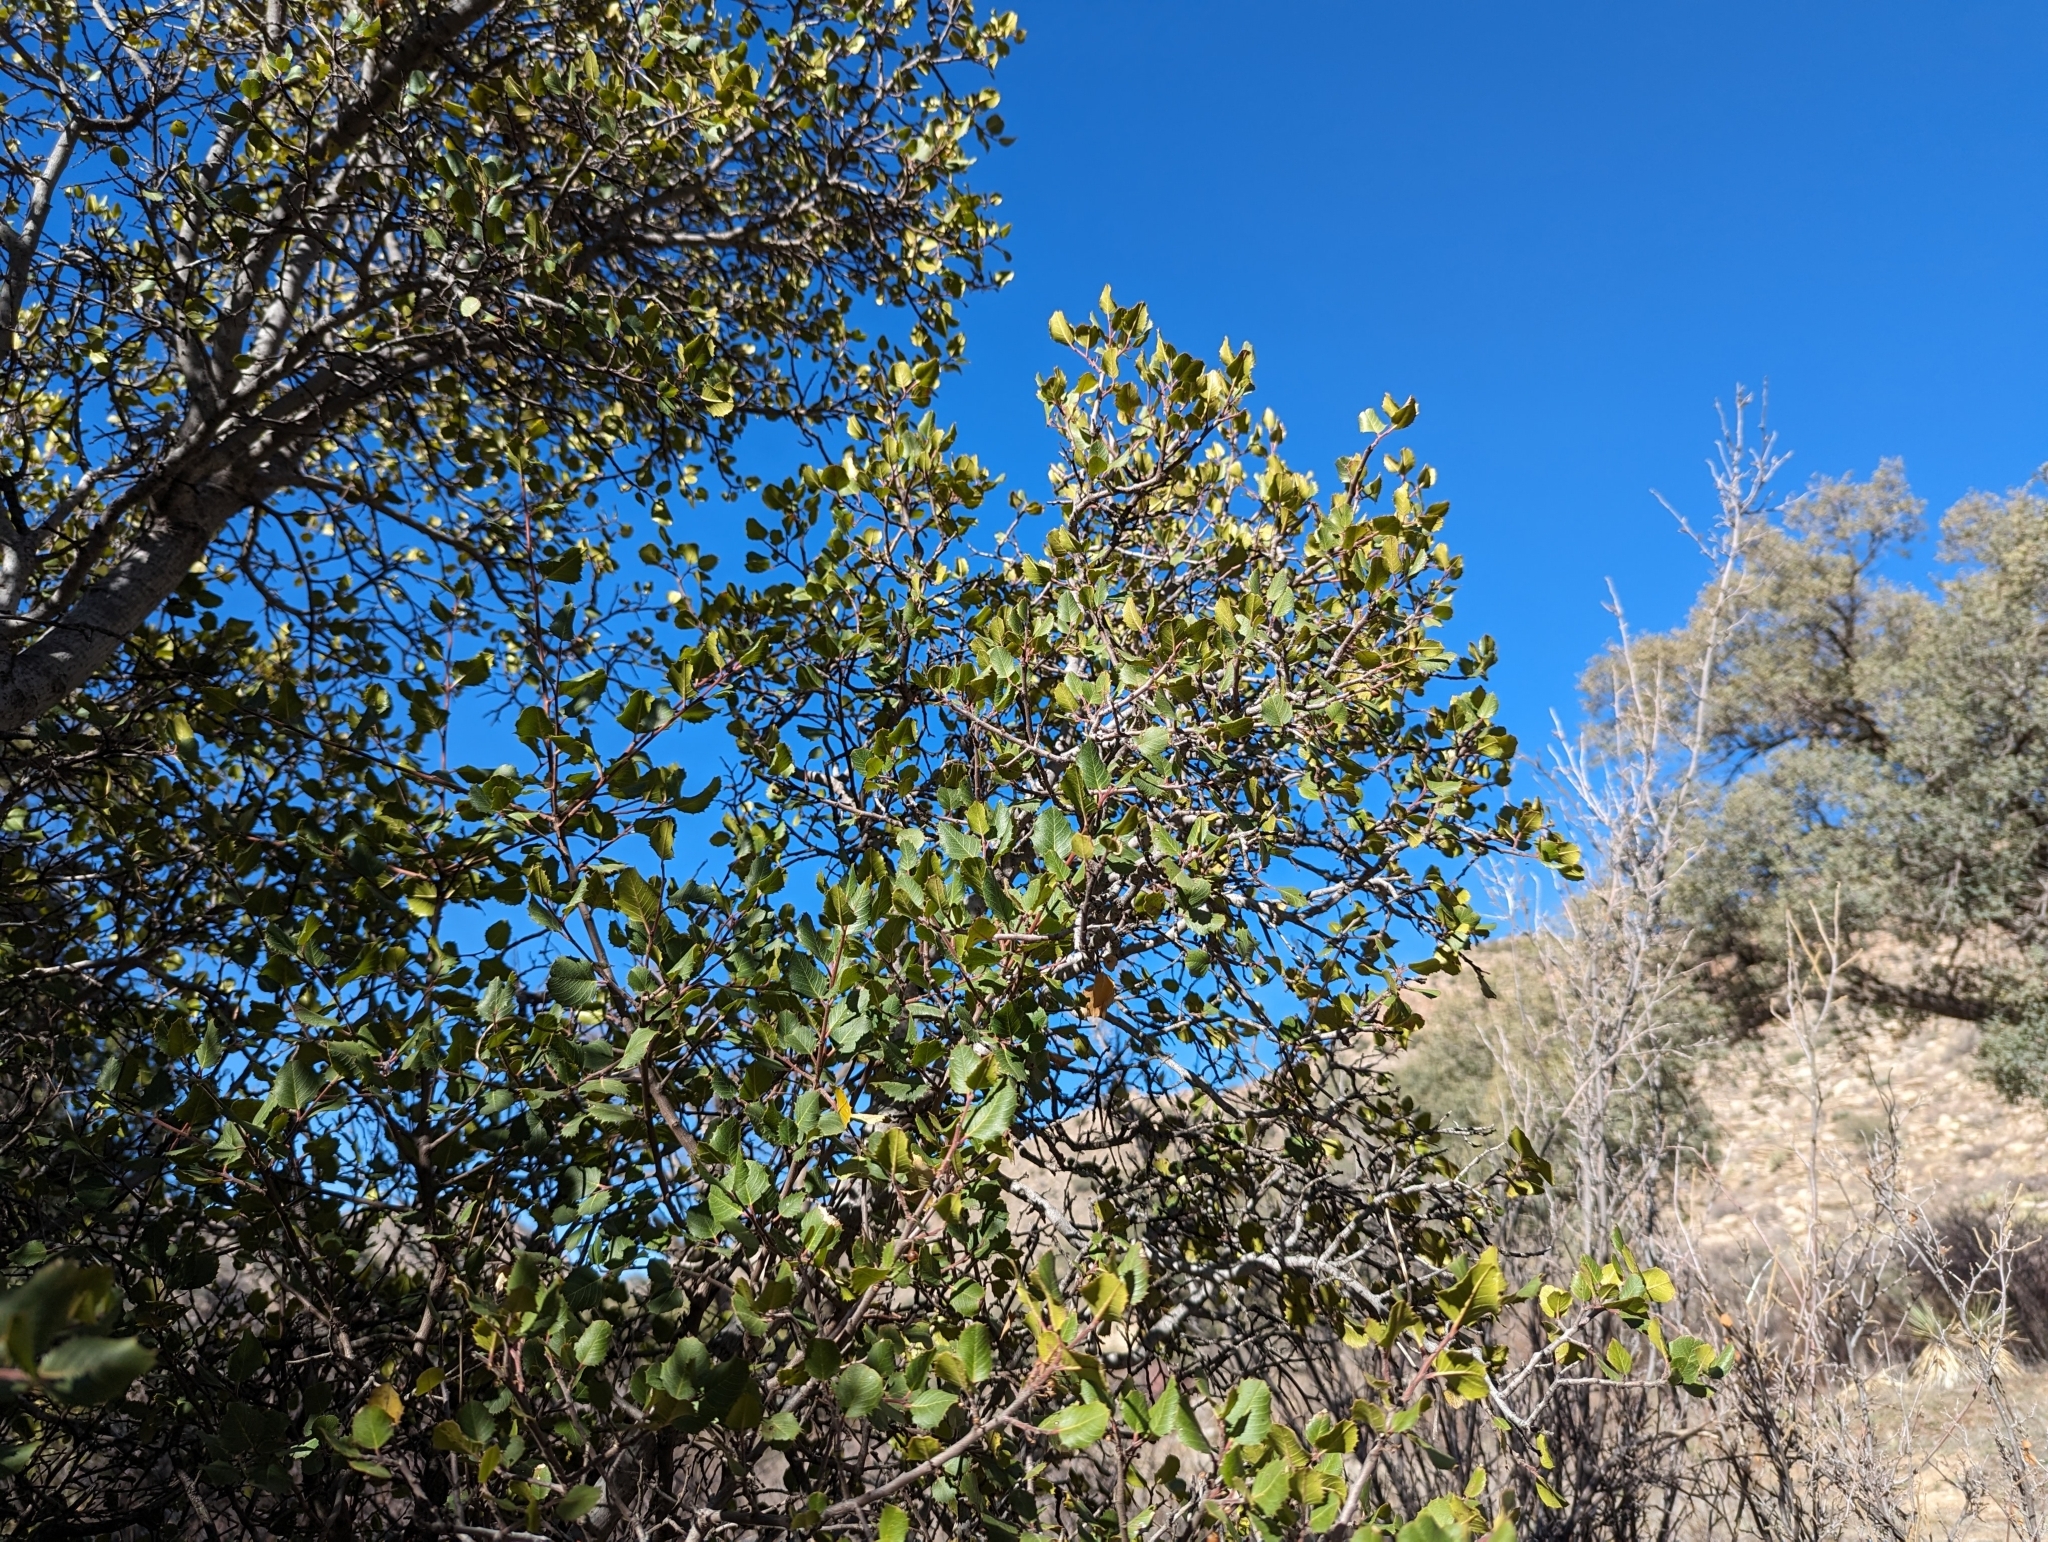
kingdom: Plantae
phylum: Tracheophyta
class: Magnoliopsida
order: Rosales
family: Rhamnaceae
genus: Endotropis
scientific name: Endotropis crocea
